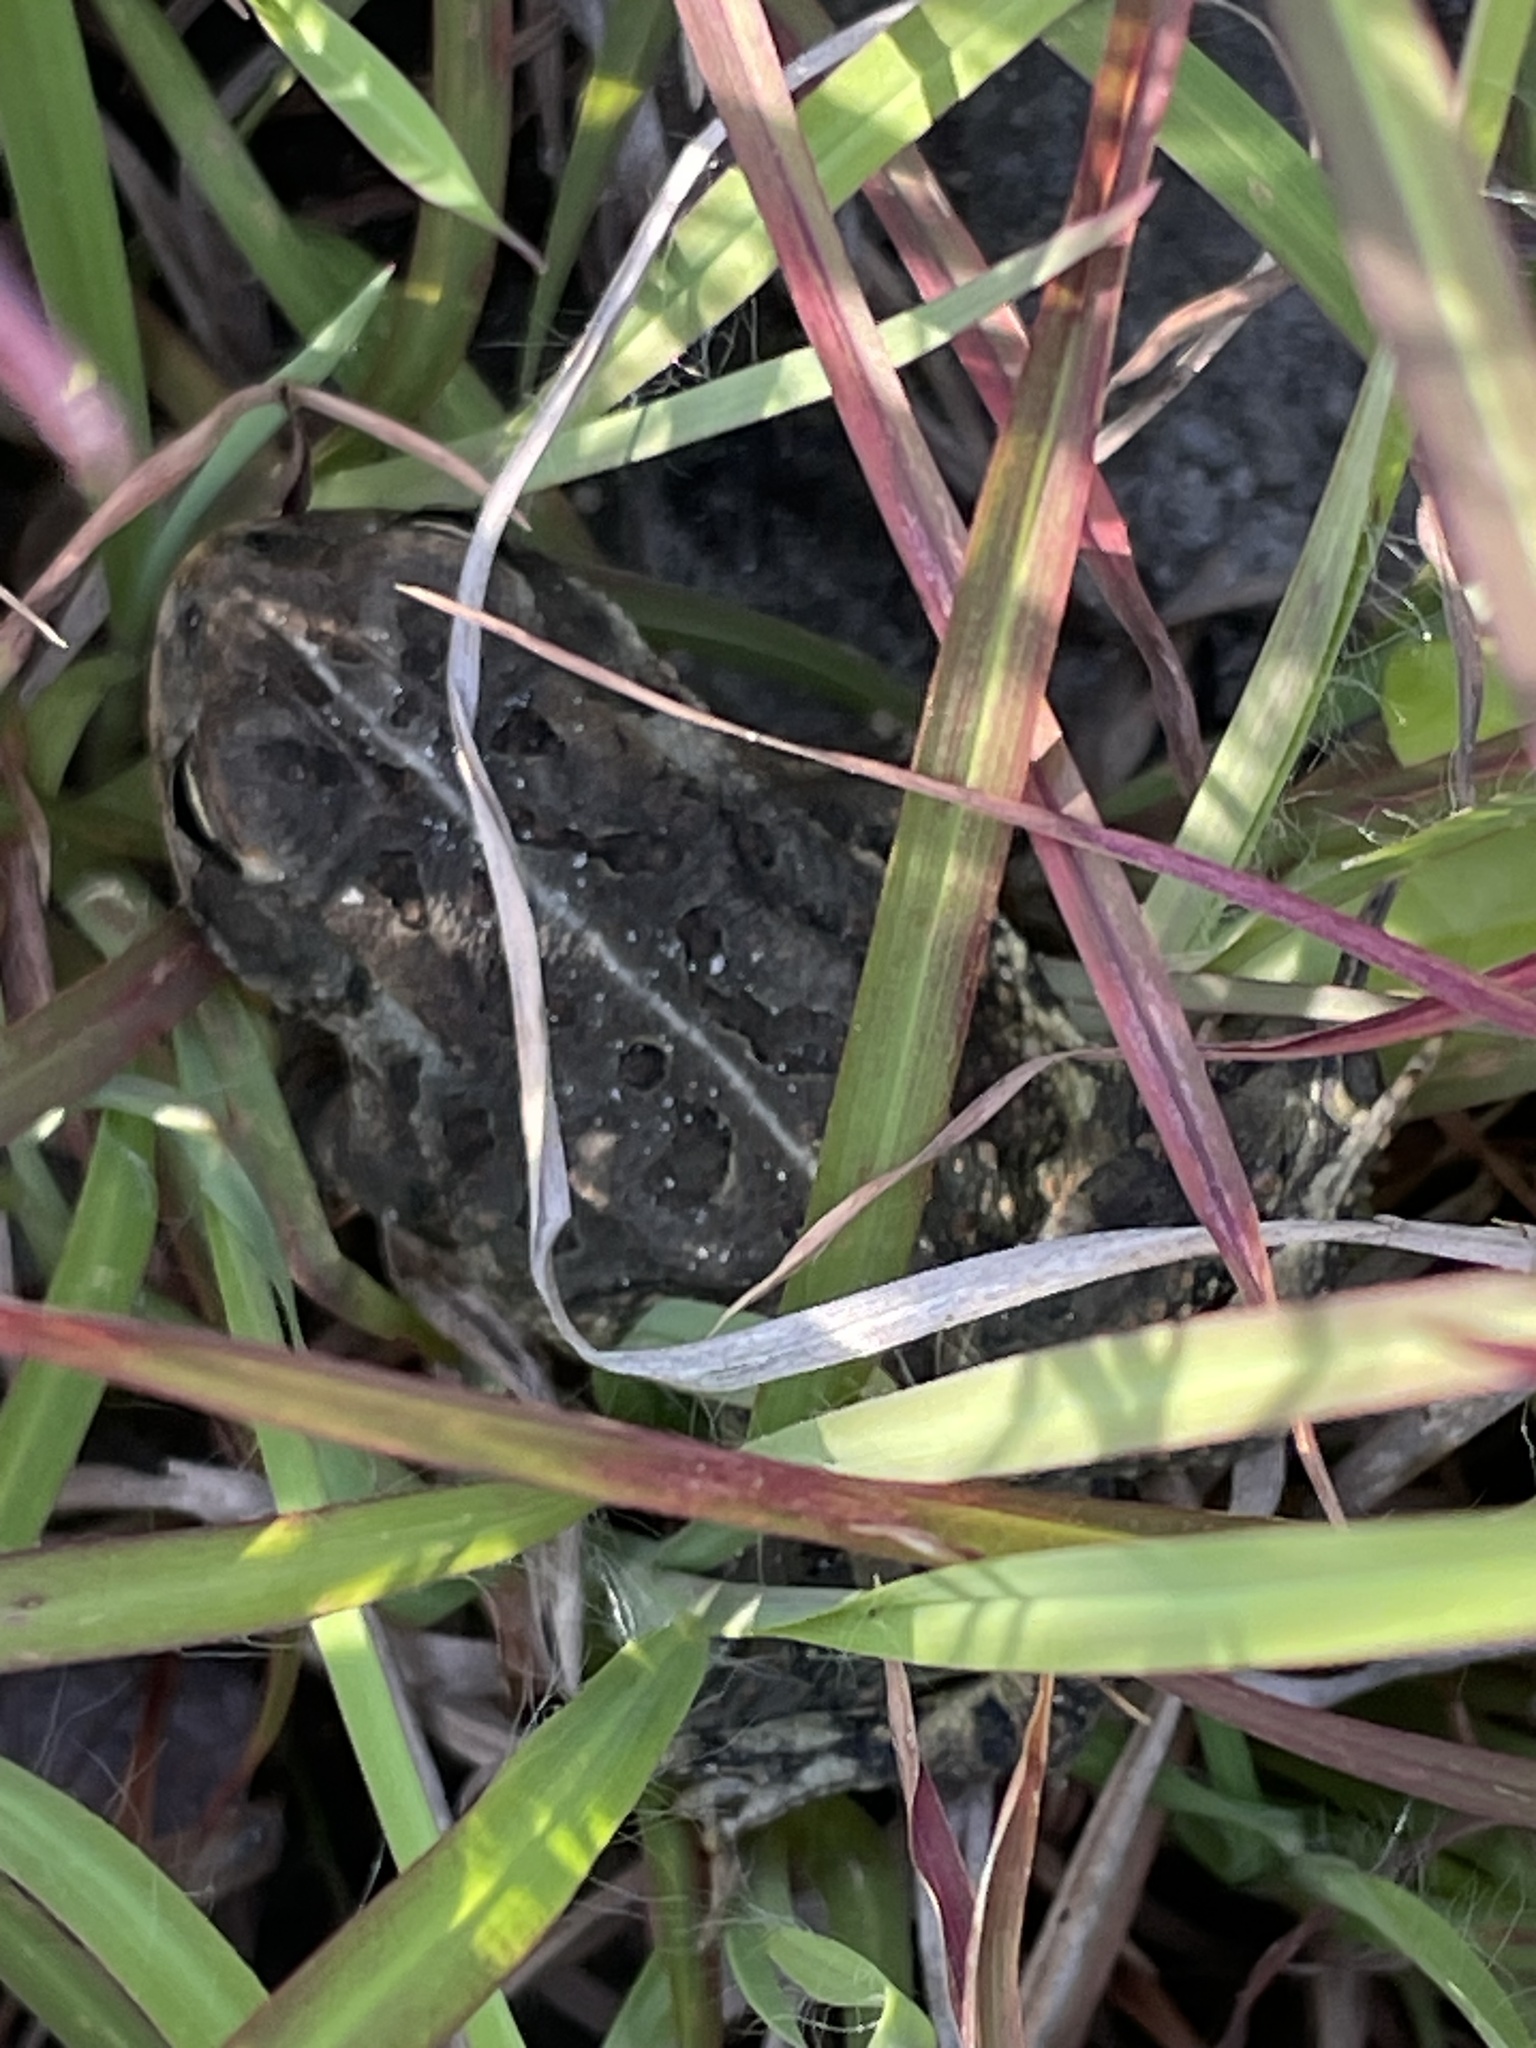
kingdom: Animalia
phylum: Chordata
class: Amphibia
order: Anura
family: Bufonidae
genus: Anaxyrus
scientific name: Anaxyrus fowleri
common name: Fowler's toad
